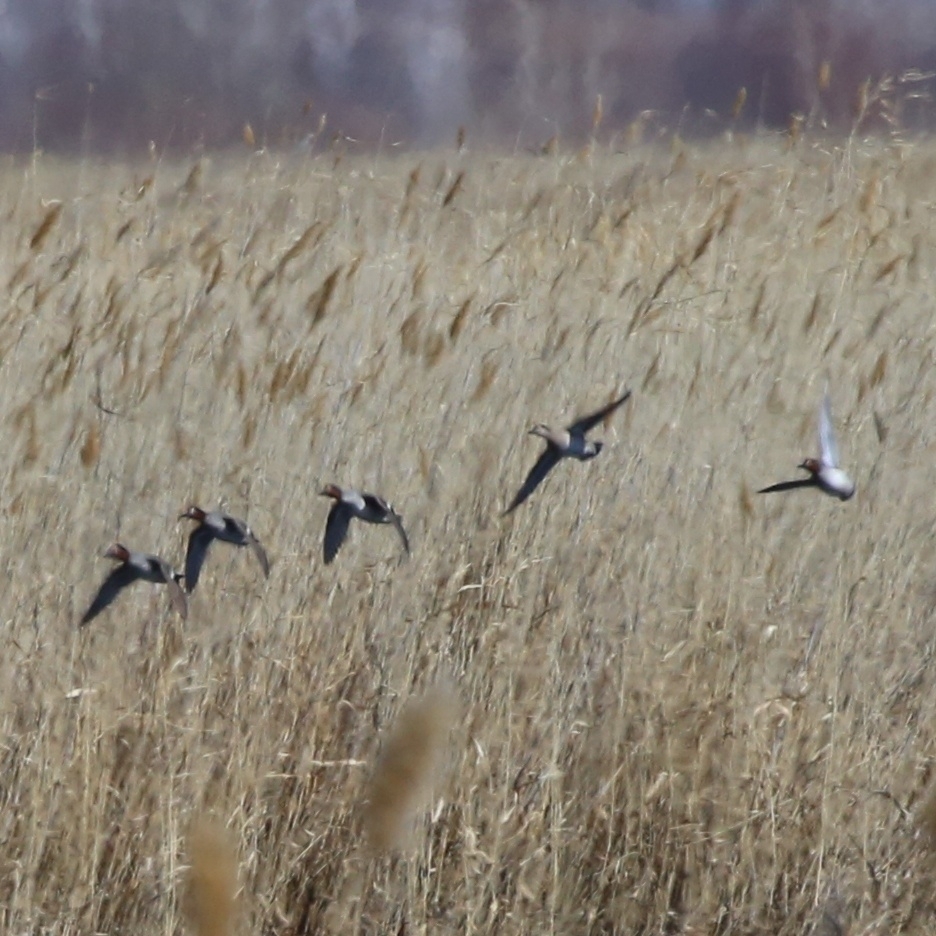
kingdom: Animalia
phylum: Chordata
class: Aves
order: Anseriformes
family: Anatidae
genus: Anas
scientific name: Anas crecca
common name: Eurasian teal
